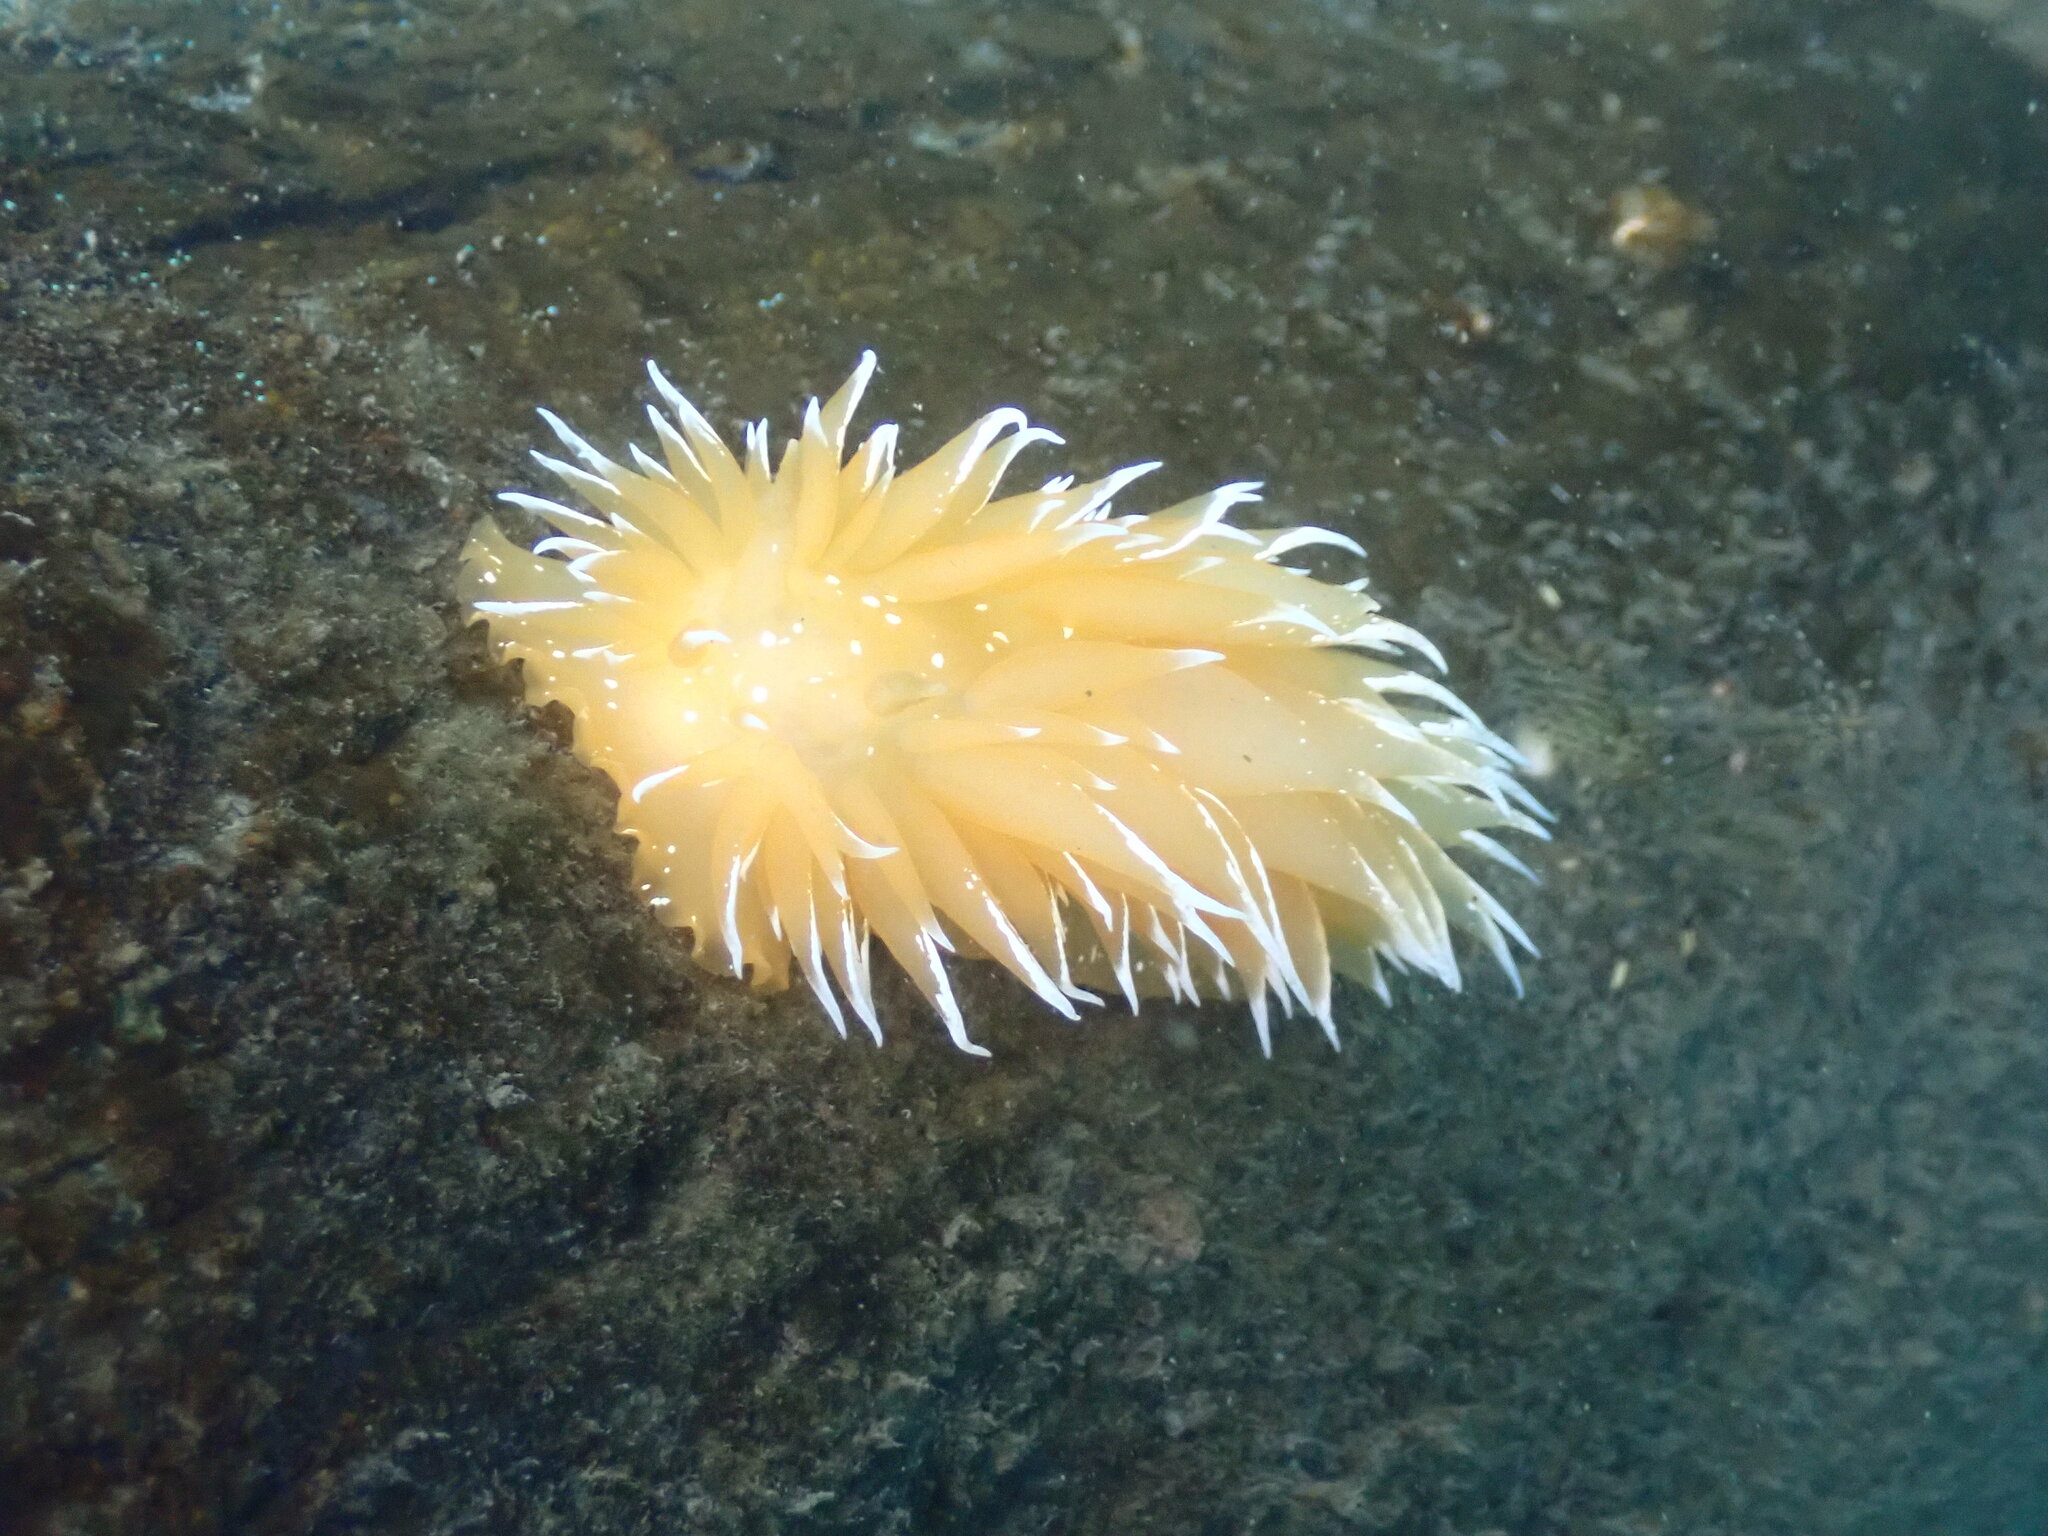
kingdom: Animalia
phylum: Mollusca
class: Gastropoda
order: Nudibranchia
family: Dironidae
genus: Dirona
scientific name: Dirona pellucida
